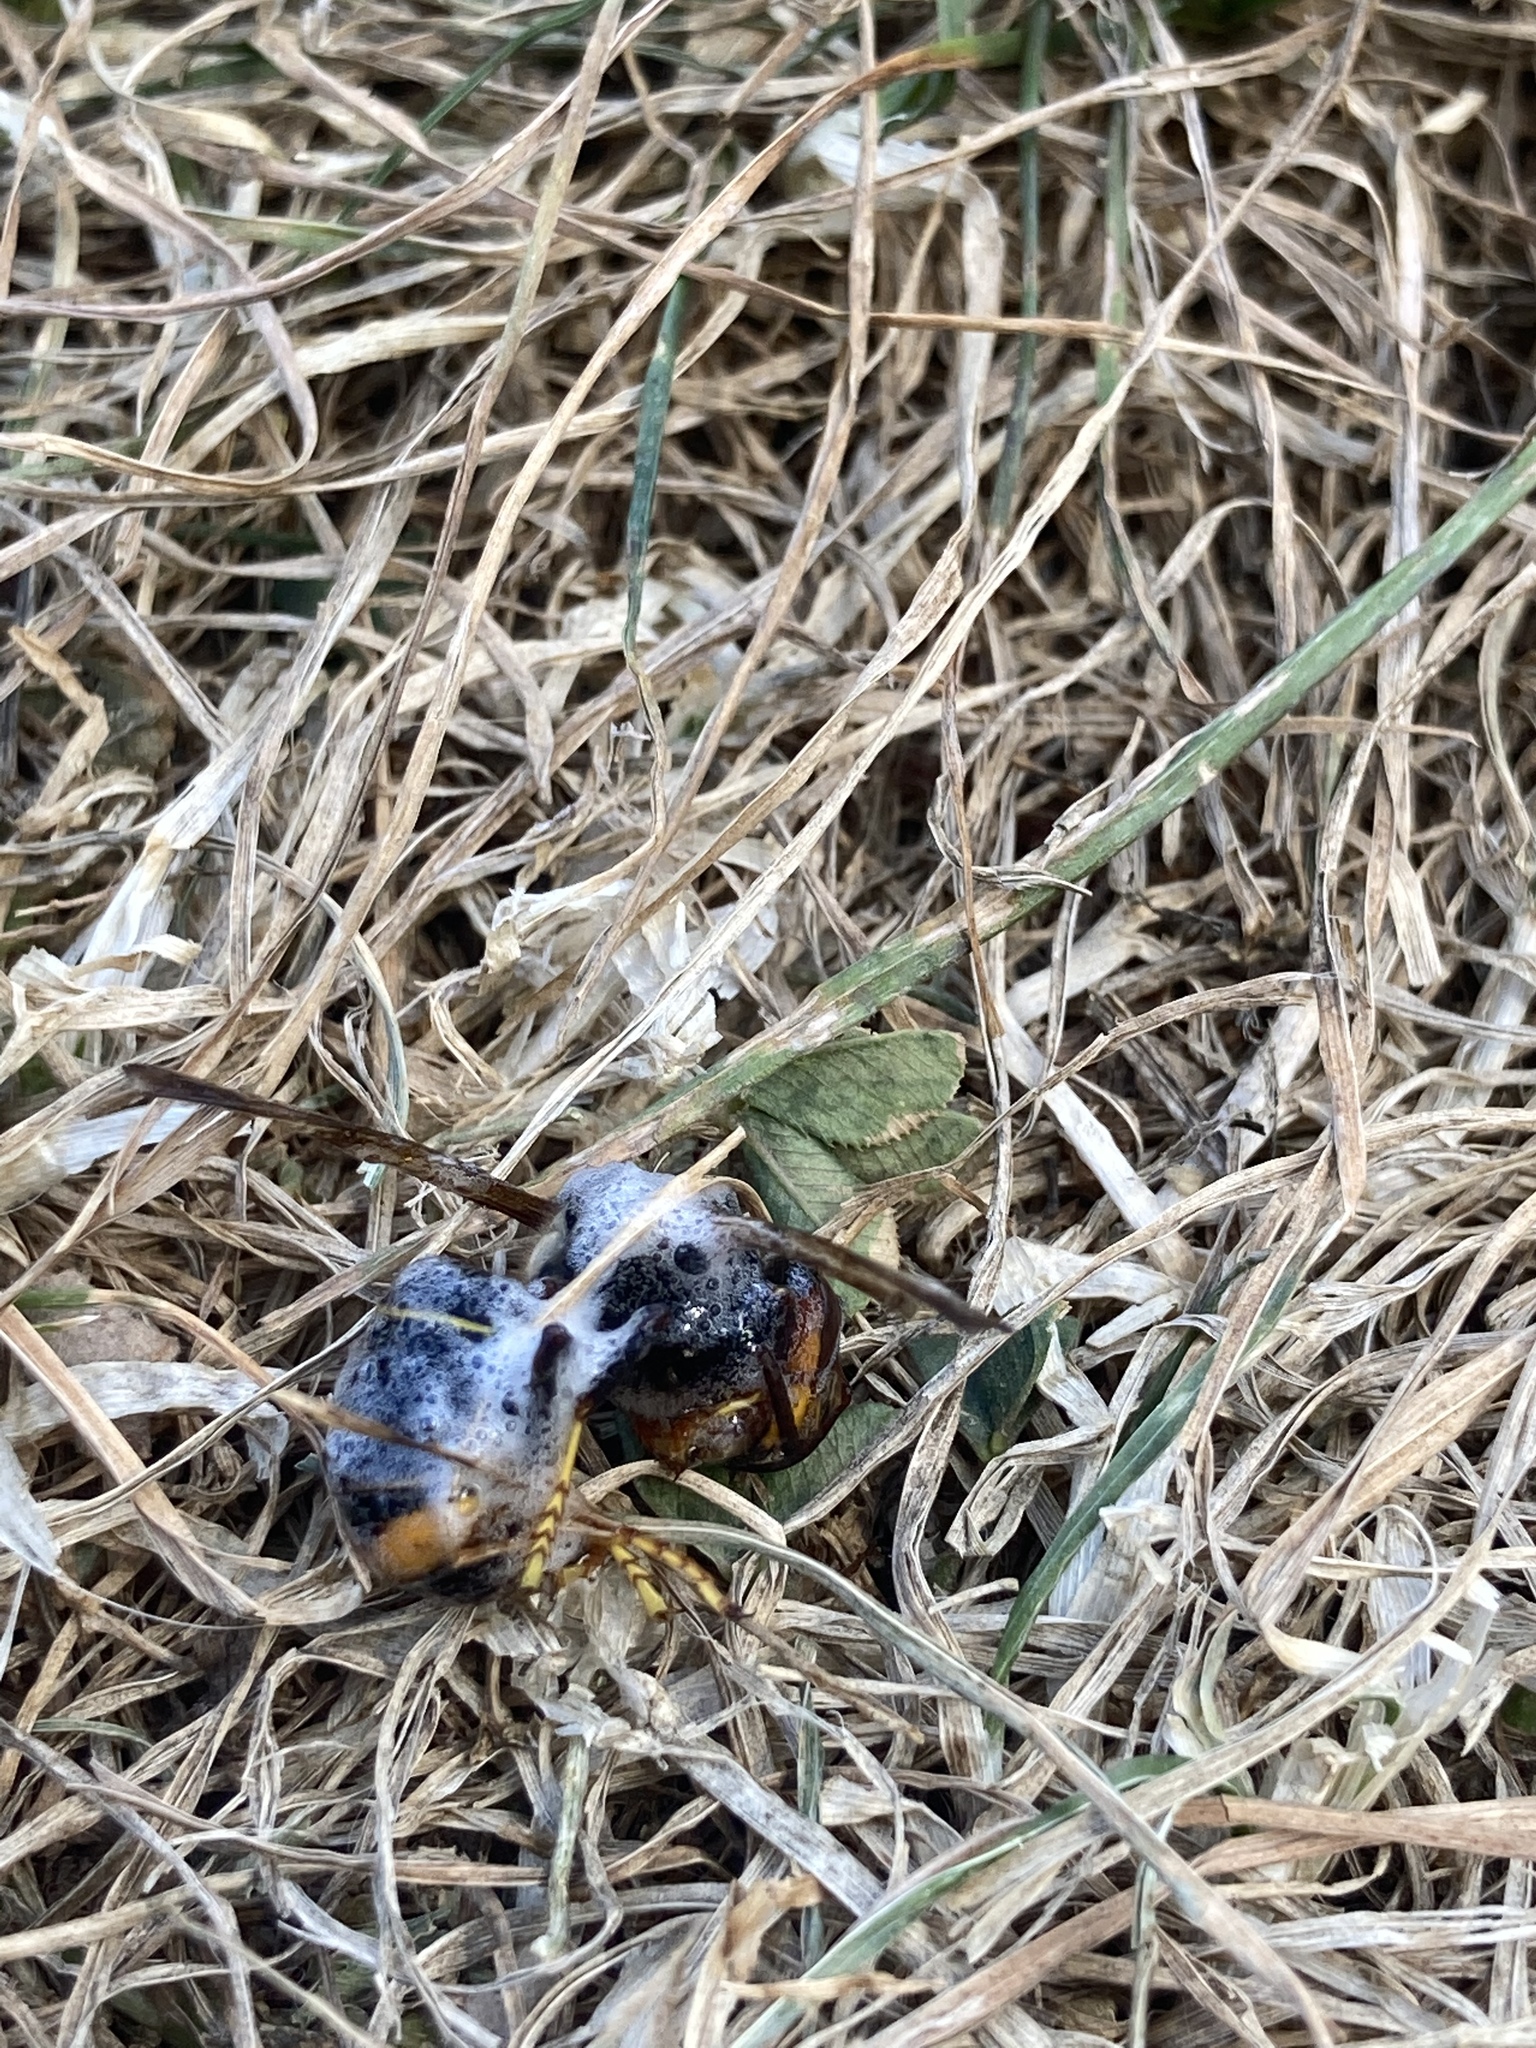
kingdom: Animalia
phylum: Arthropoda
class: Insecta
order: Hymenoptera
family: Vespidae
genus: Vespa
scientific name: Vespa velutina
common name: Asian hornet
